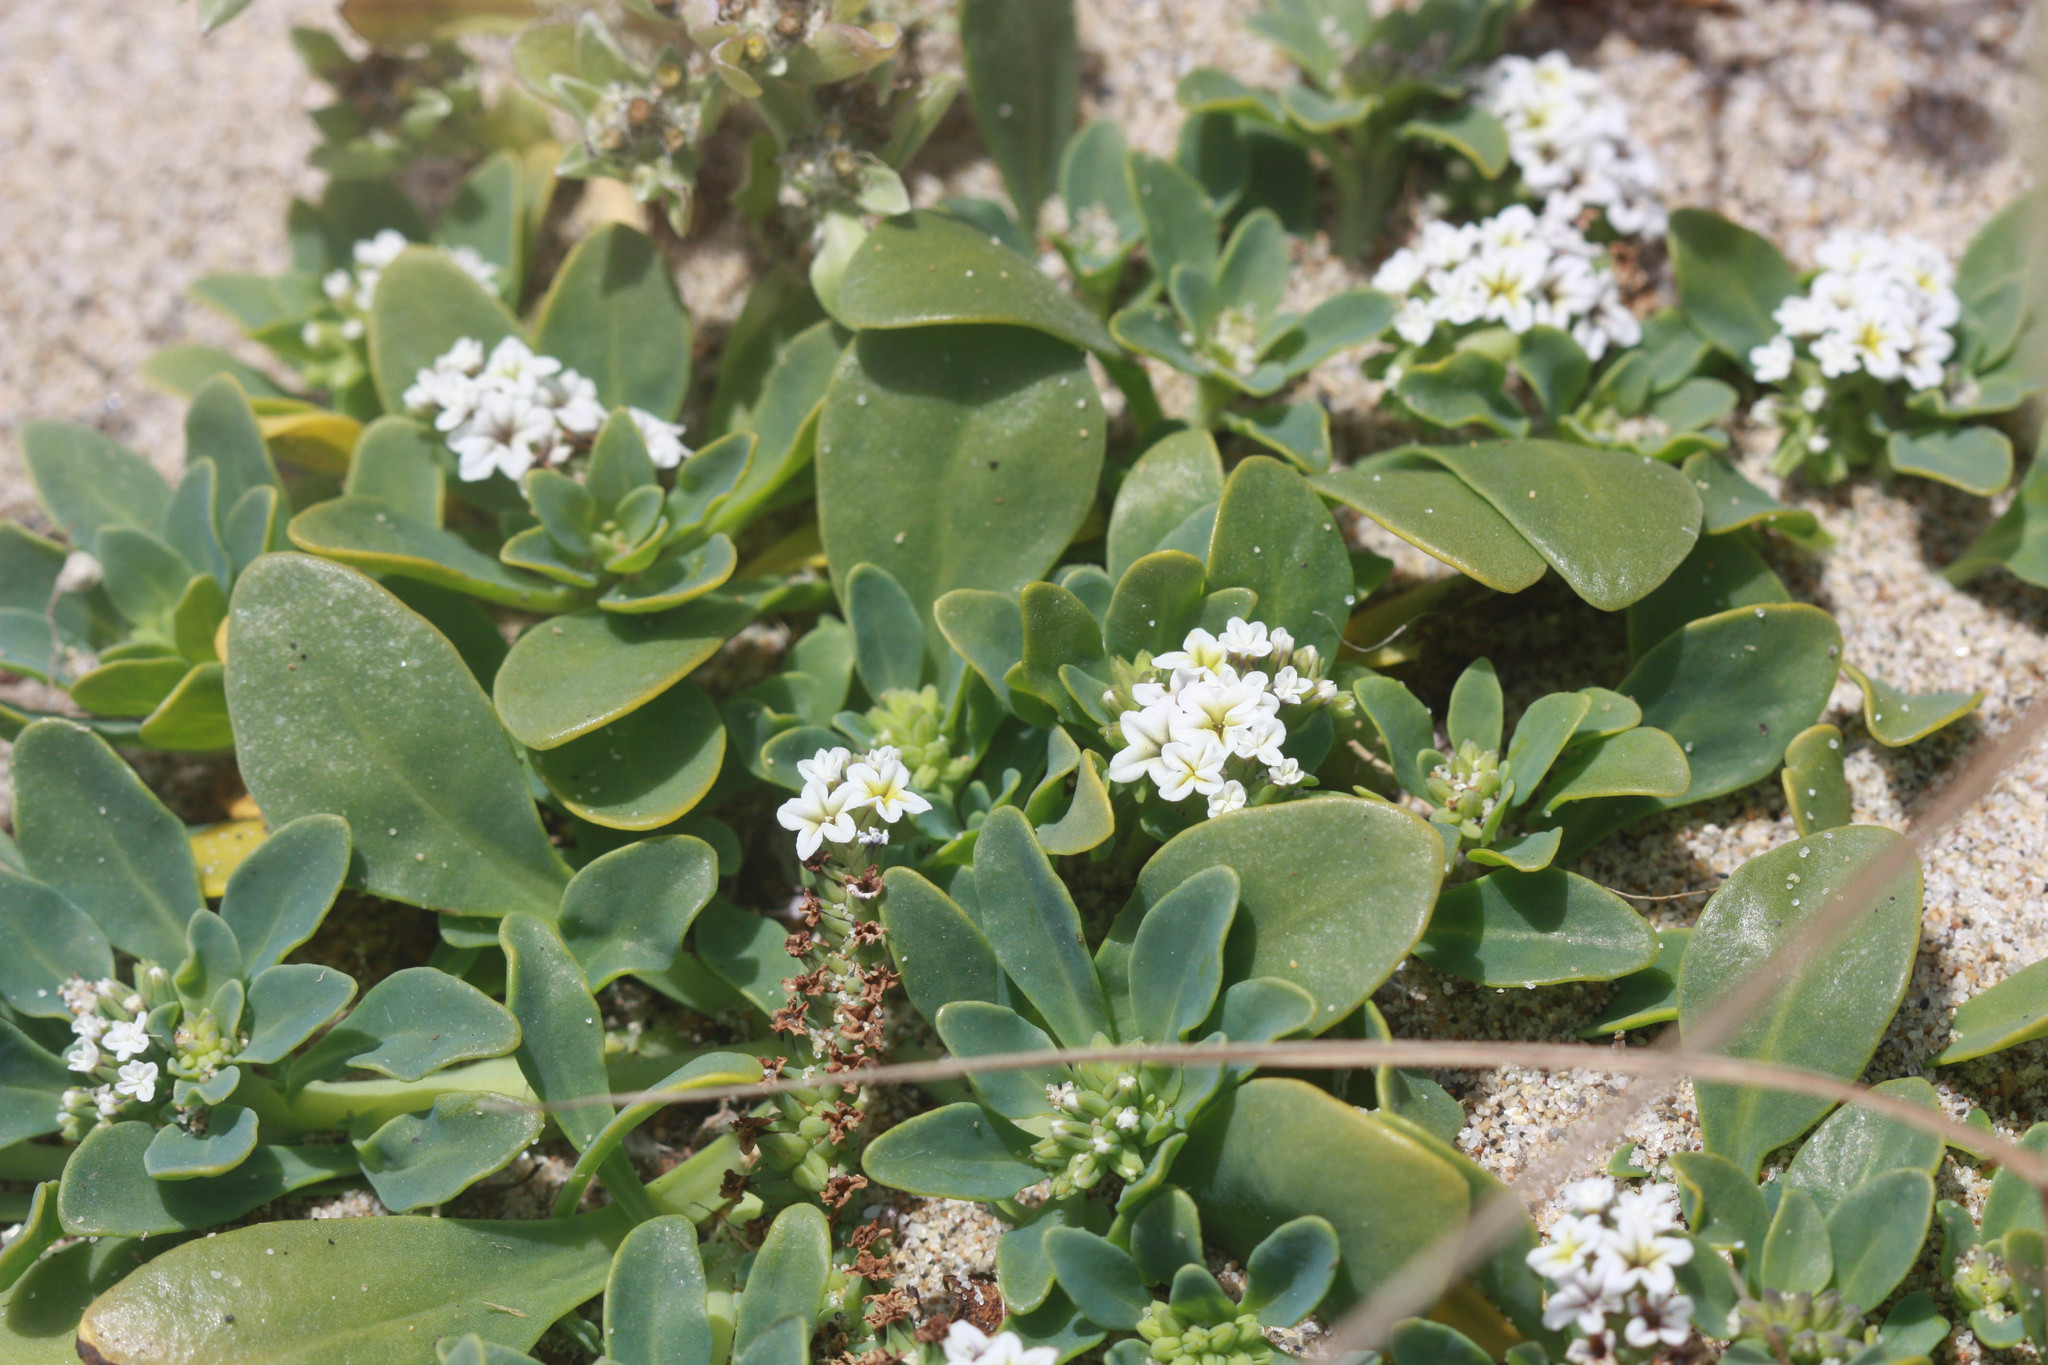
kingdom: Plantae
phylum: Tracheophyta
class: Magnoliopsida
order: Boraginales
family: Heliotropiaceae
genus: Heliotropium
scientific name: Heliotropium curassavicum
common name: Seaside heliotrope
